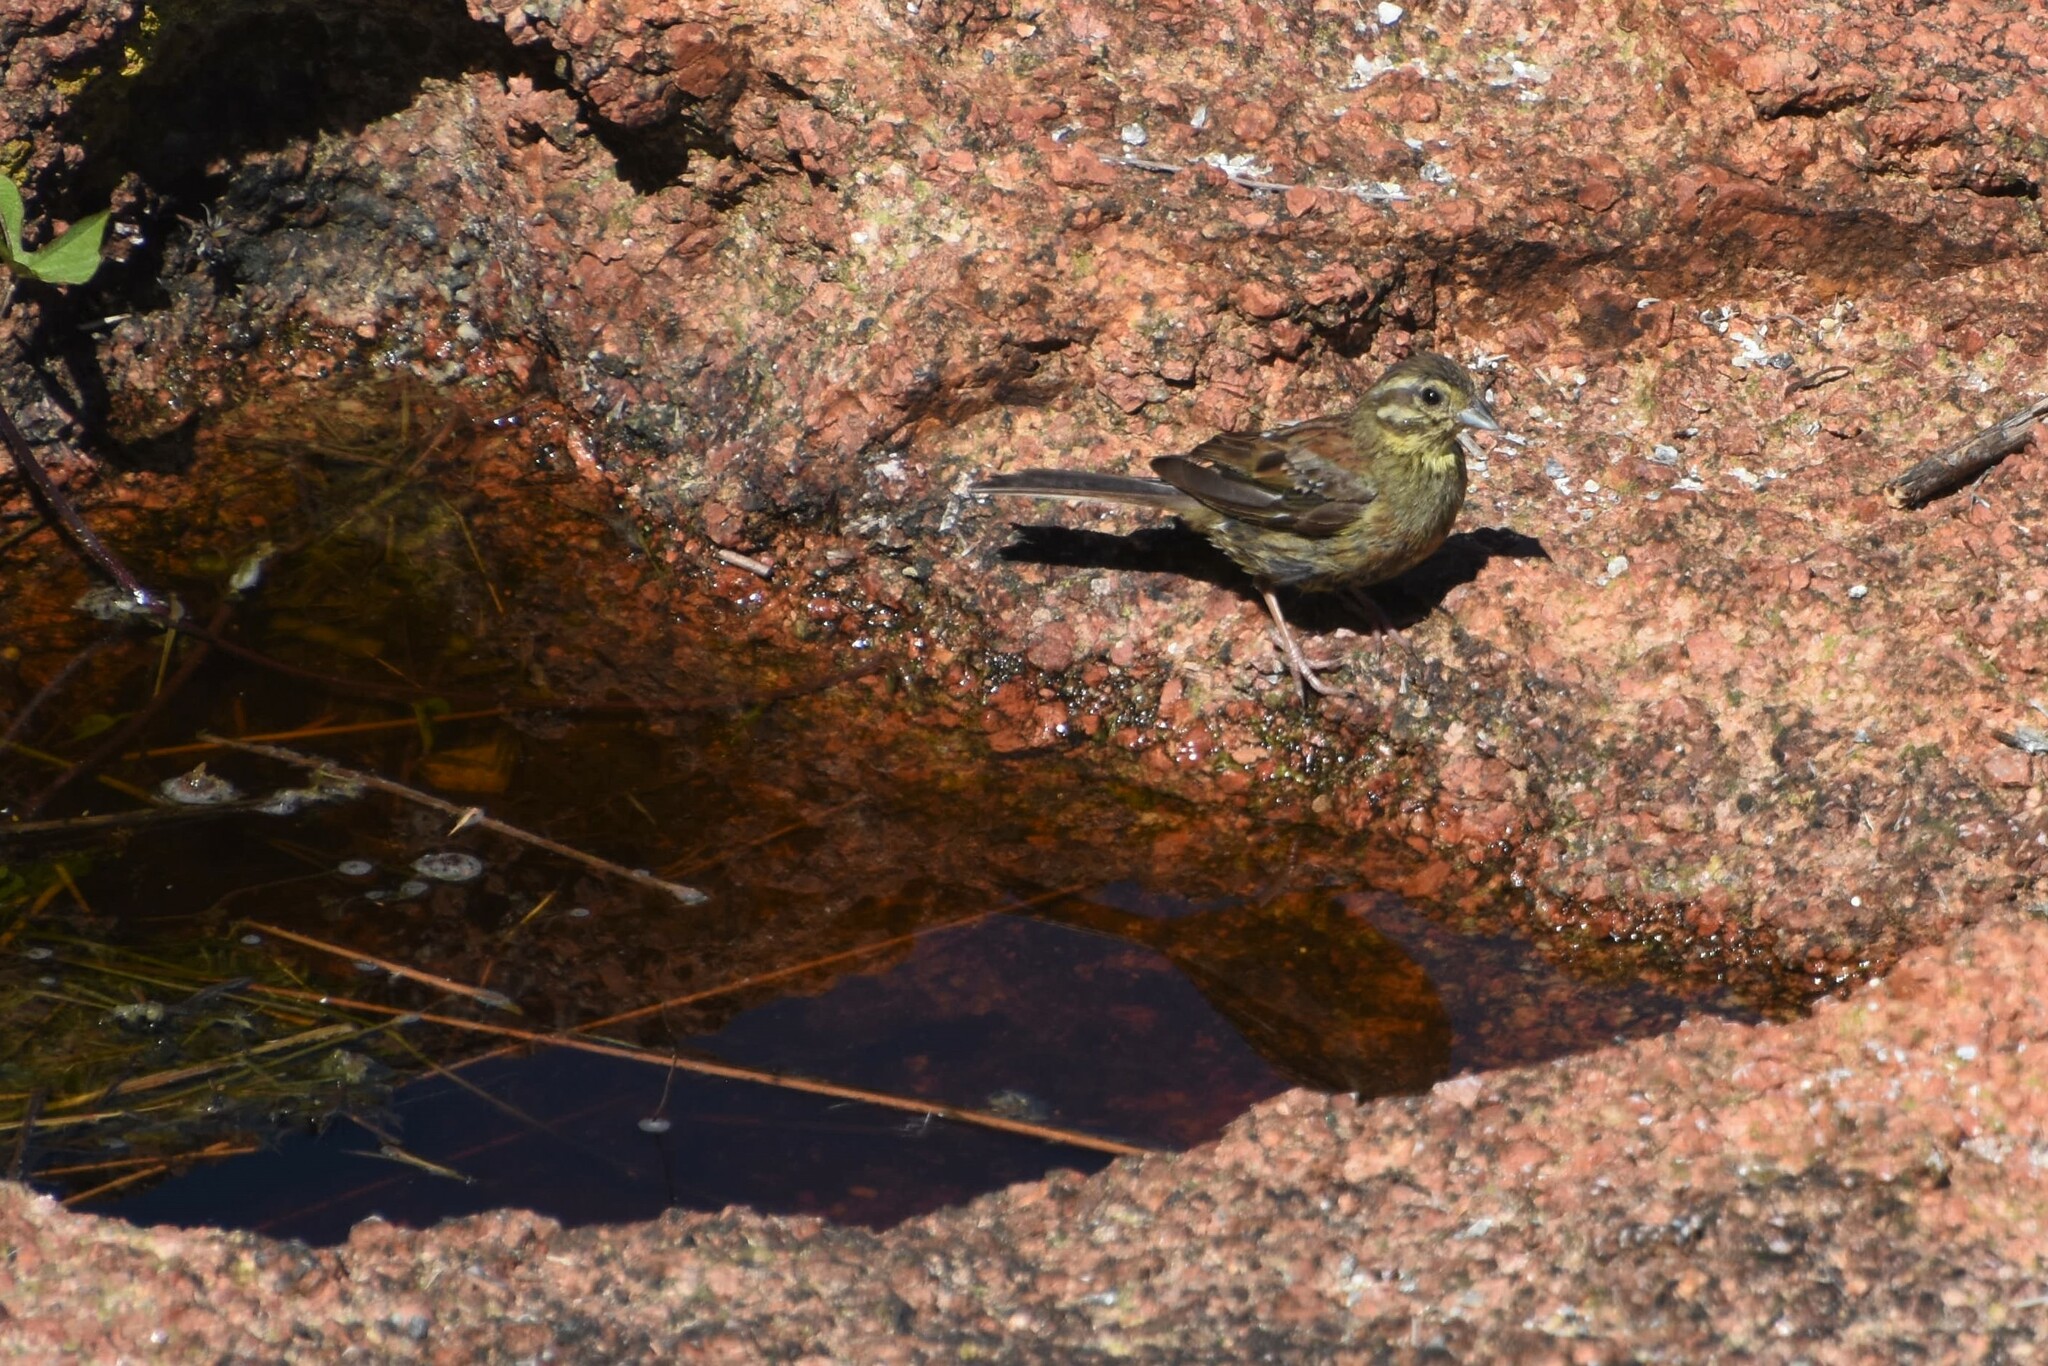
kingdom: Animalia
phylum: Chordata
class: Aves
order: Passeriformes
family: Emberizidae
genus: Emberiza
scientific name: Emberiza cirlus
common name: Cirl bunting
